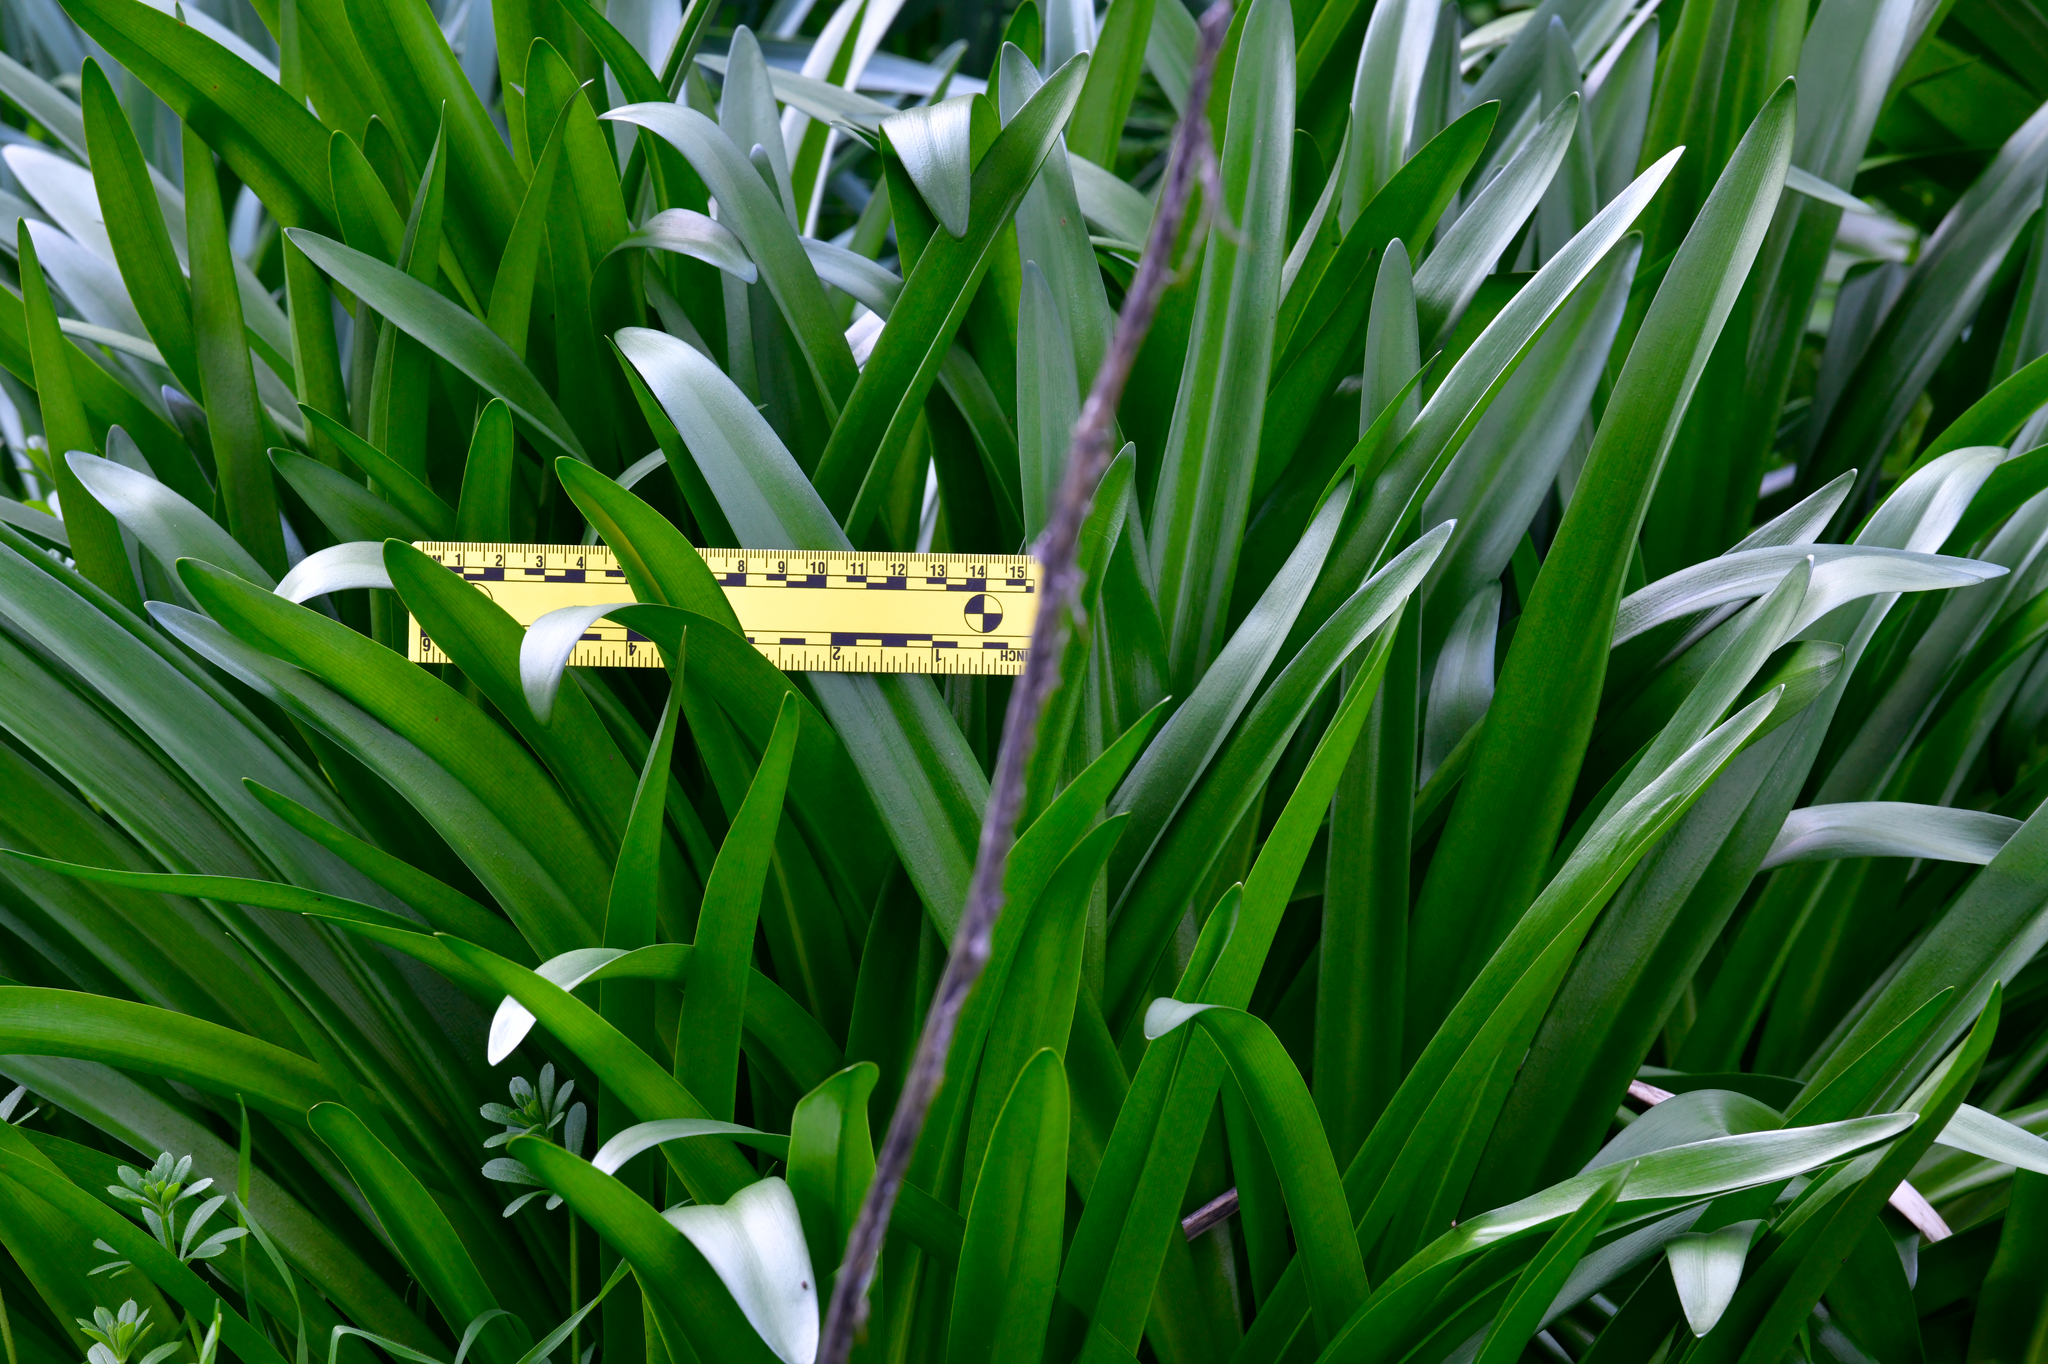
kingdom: Plantae
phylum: Tracheophyta
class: Liliopsida
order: Asparagales
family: Amaryllidaceae
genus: Amaryllis
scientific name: Amaryllis belladonna
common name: Jersey lily
